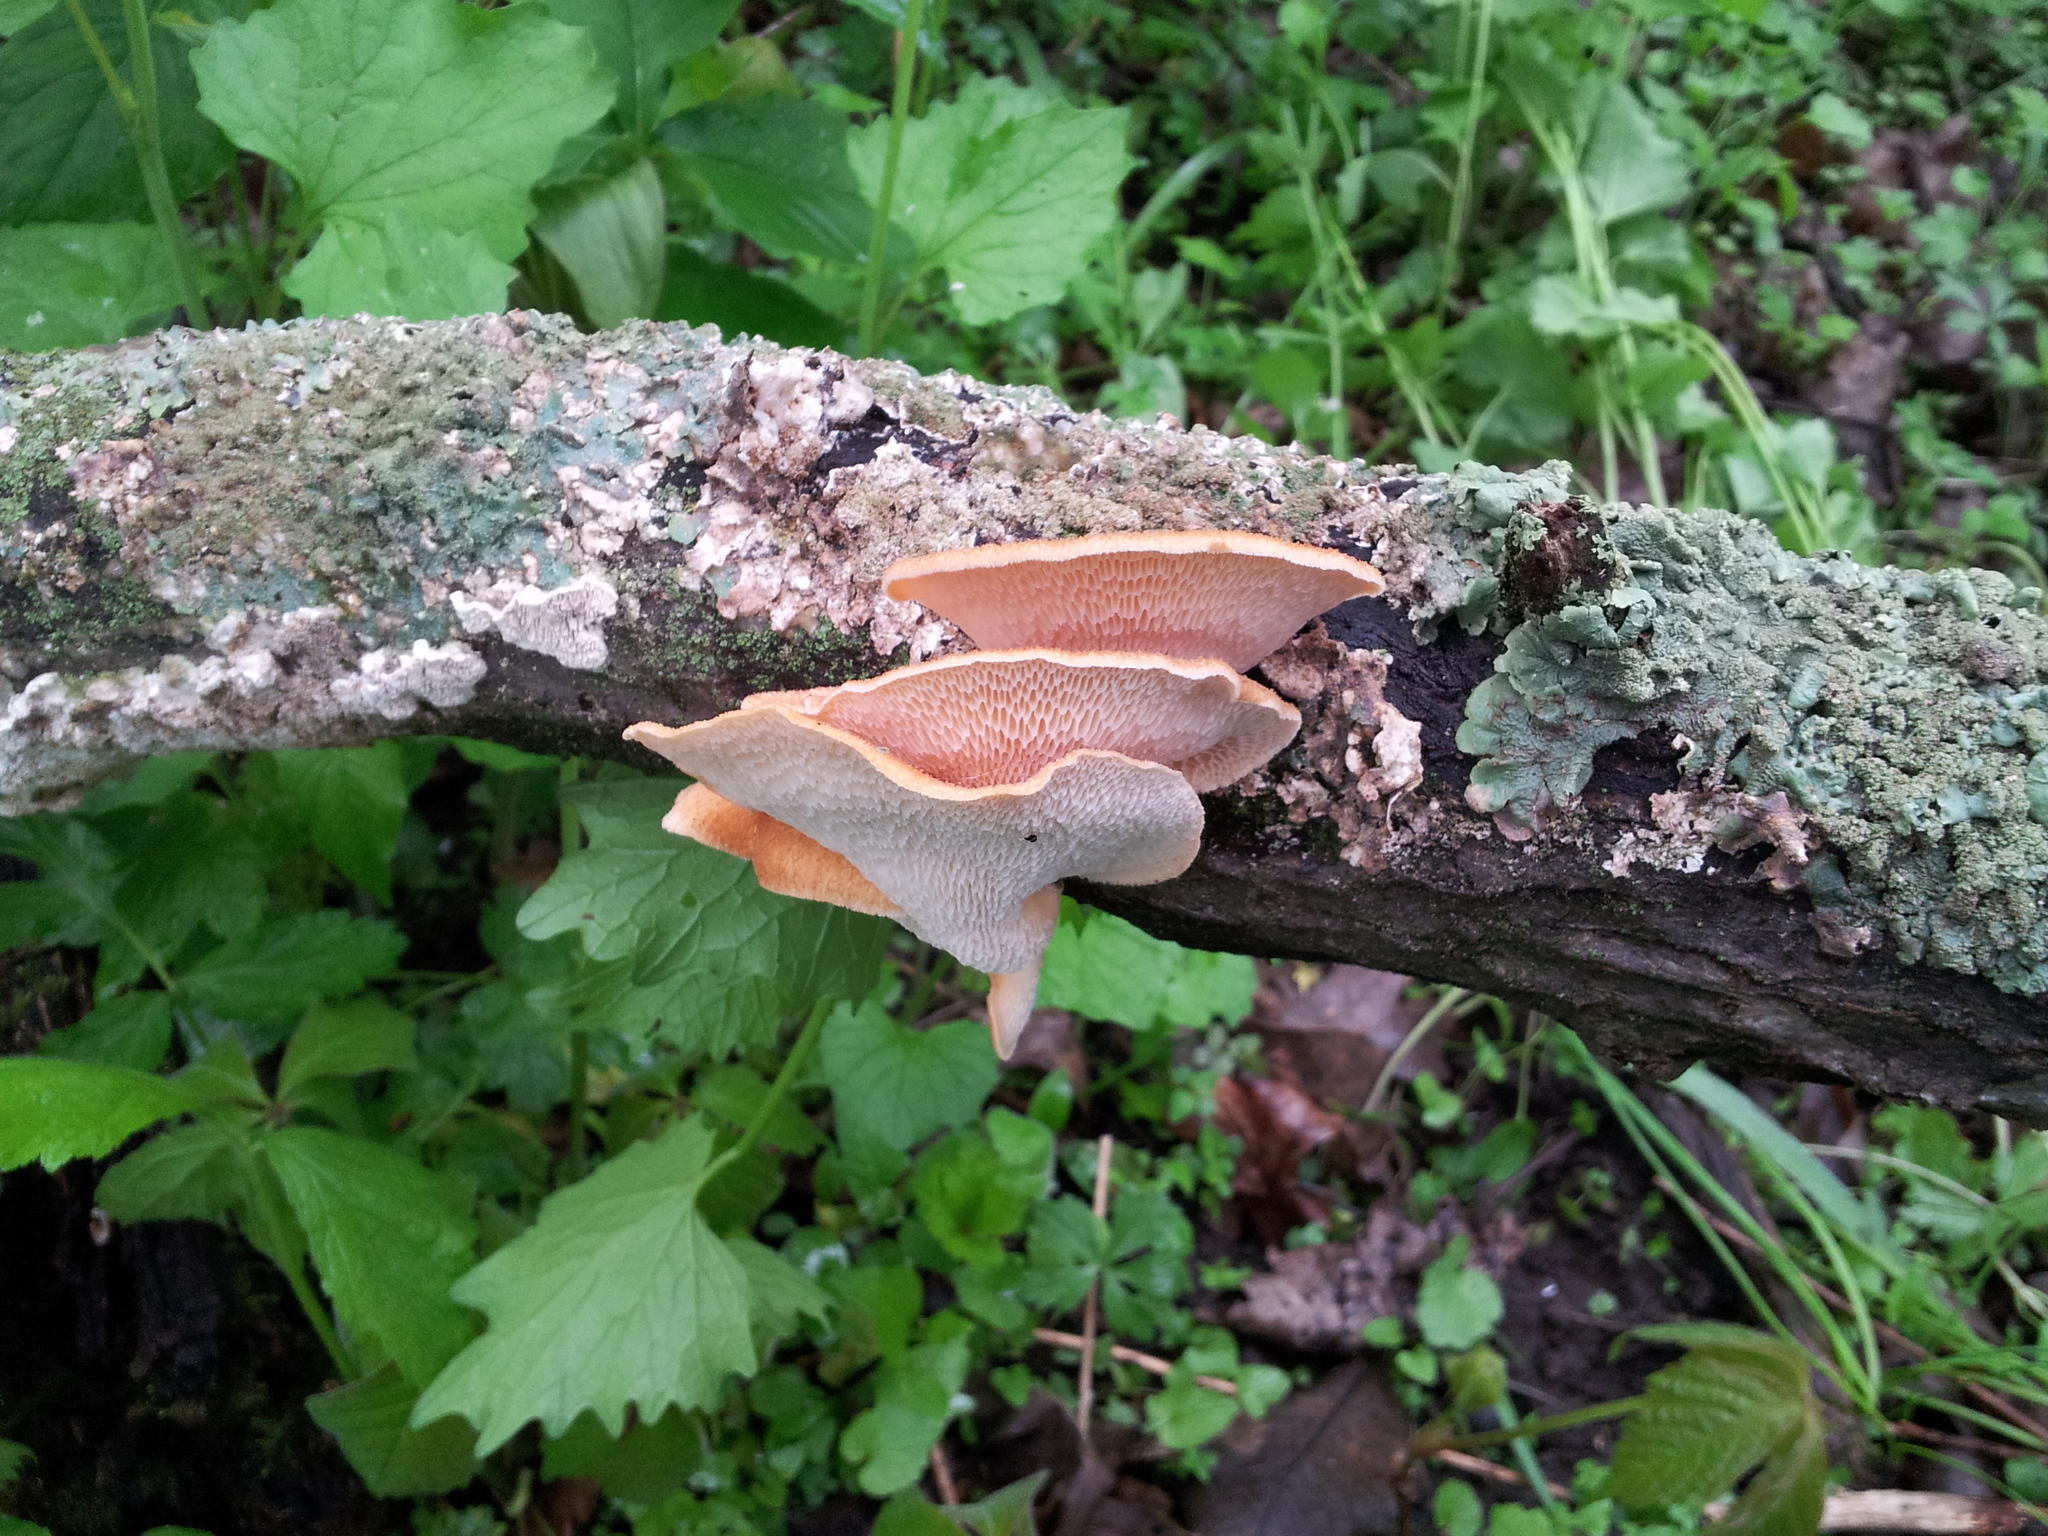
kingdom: Fungi
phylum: Basidiomycota
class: Agaricomycetes
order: Polyporales
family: Polyporaceae
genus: Neofavolus
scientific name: Neofavolus alveolaris
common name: Hexagonal-pored polypore
